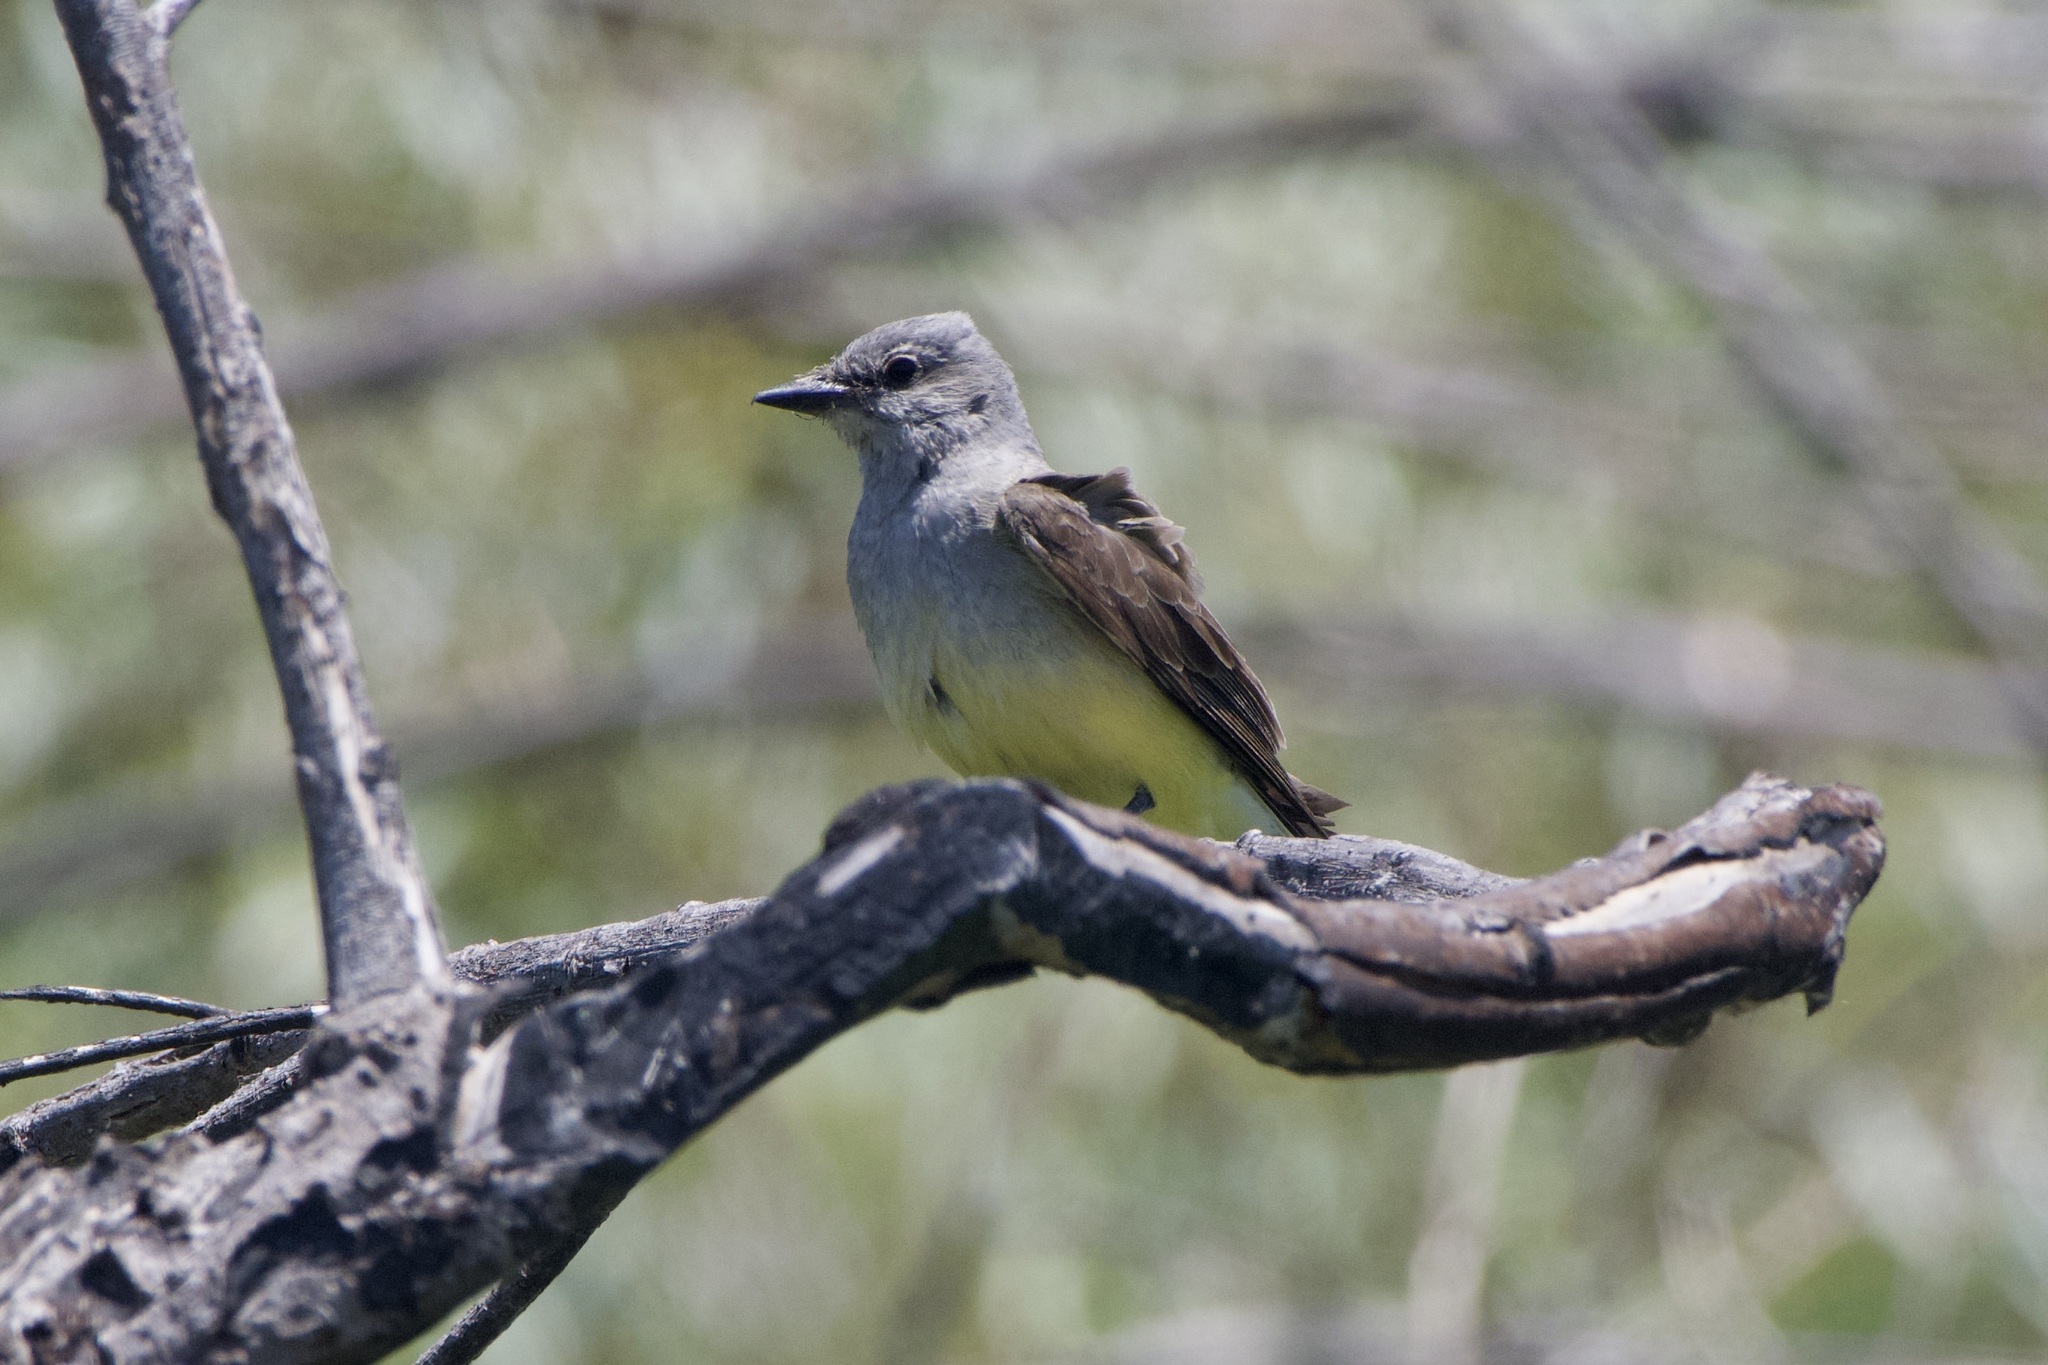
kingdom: Animalia
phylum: Chordata
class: Aves
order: Passeriformes
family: Tyrannidae
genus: Tyrannus
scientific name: Tyrannus verticalis
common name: Western kingbird
